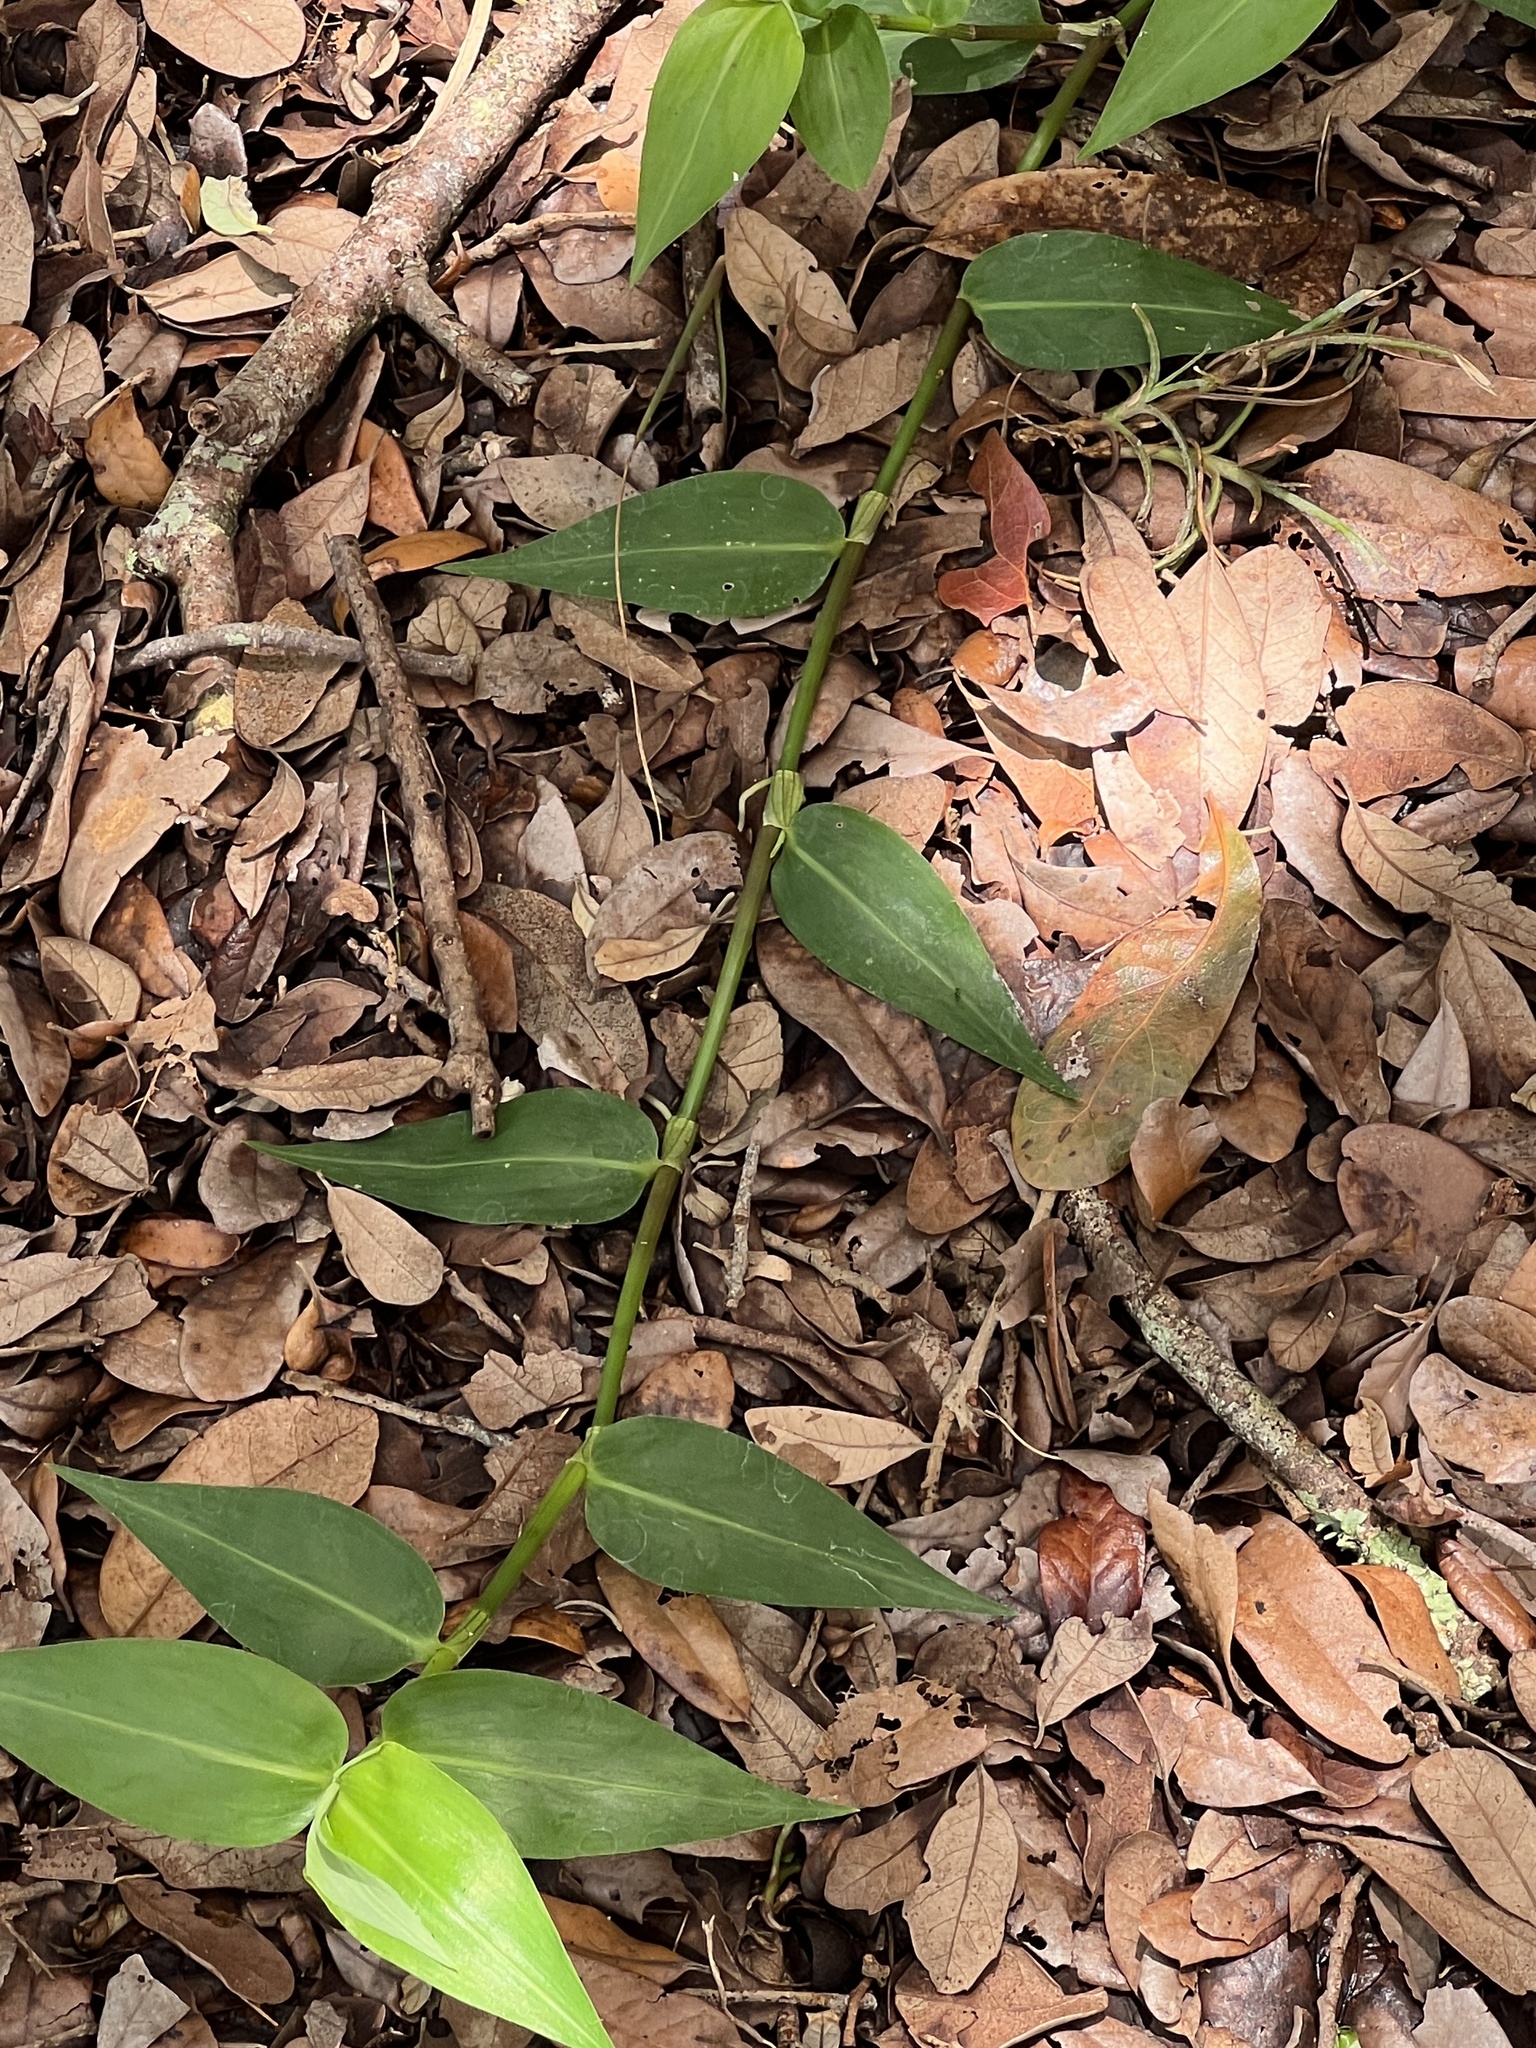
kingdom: Plantae
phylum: Tracheophyta
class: Liliopsida
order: Commelinales
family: Commelinaceae
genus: Commelina
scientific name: Commelina diffusa
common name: Climbing dayflower
